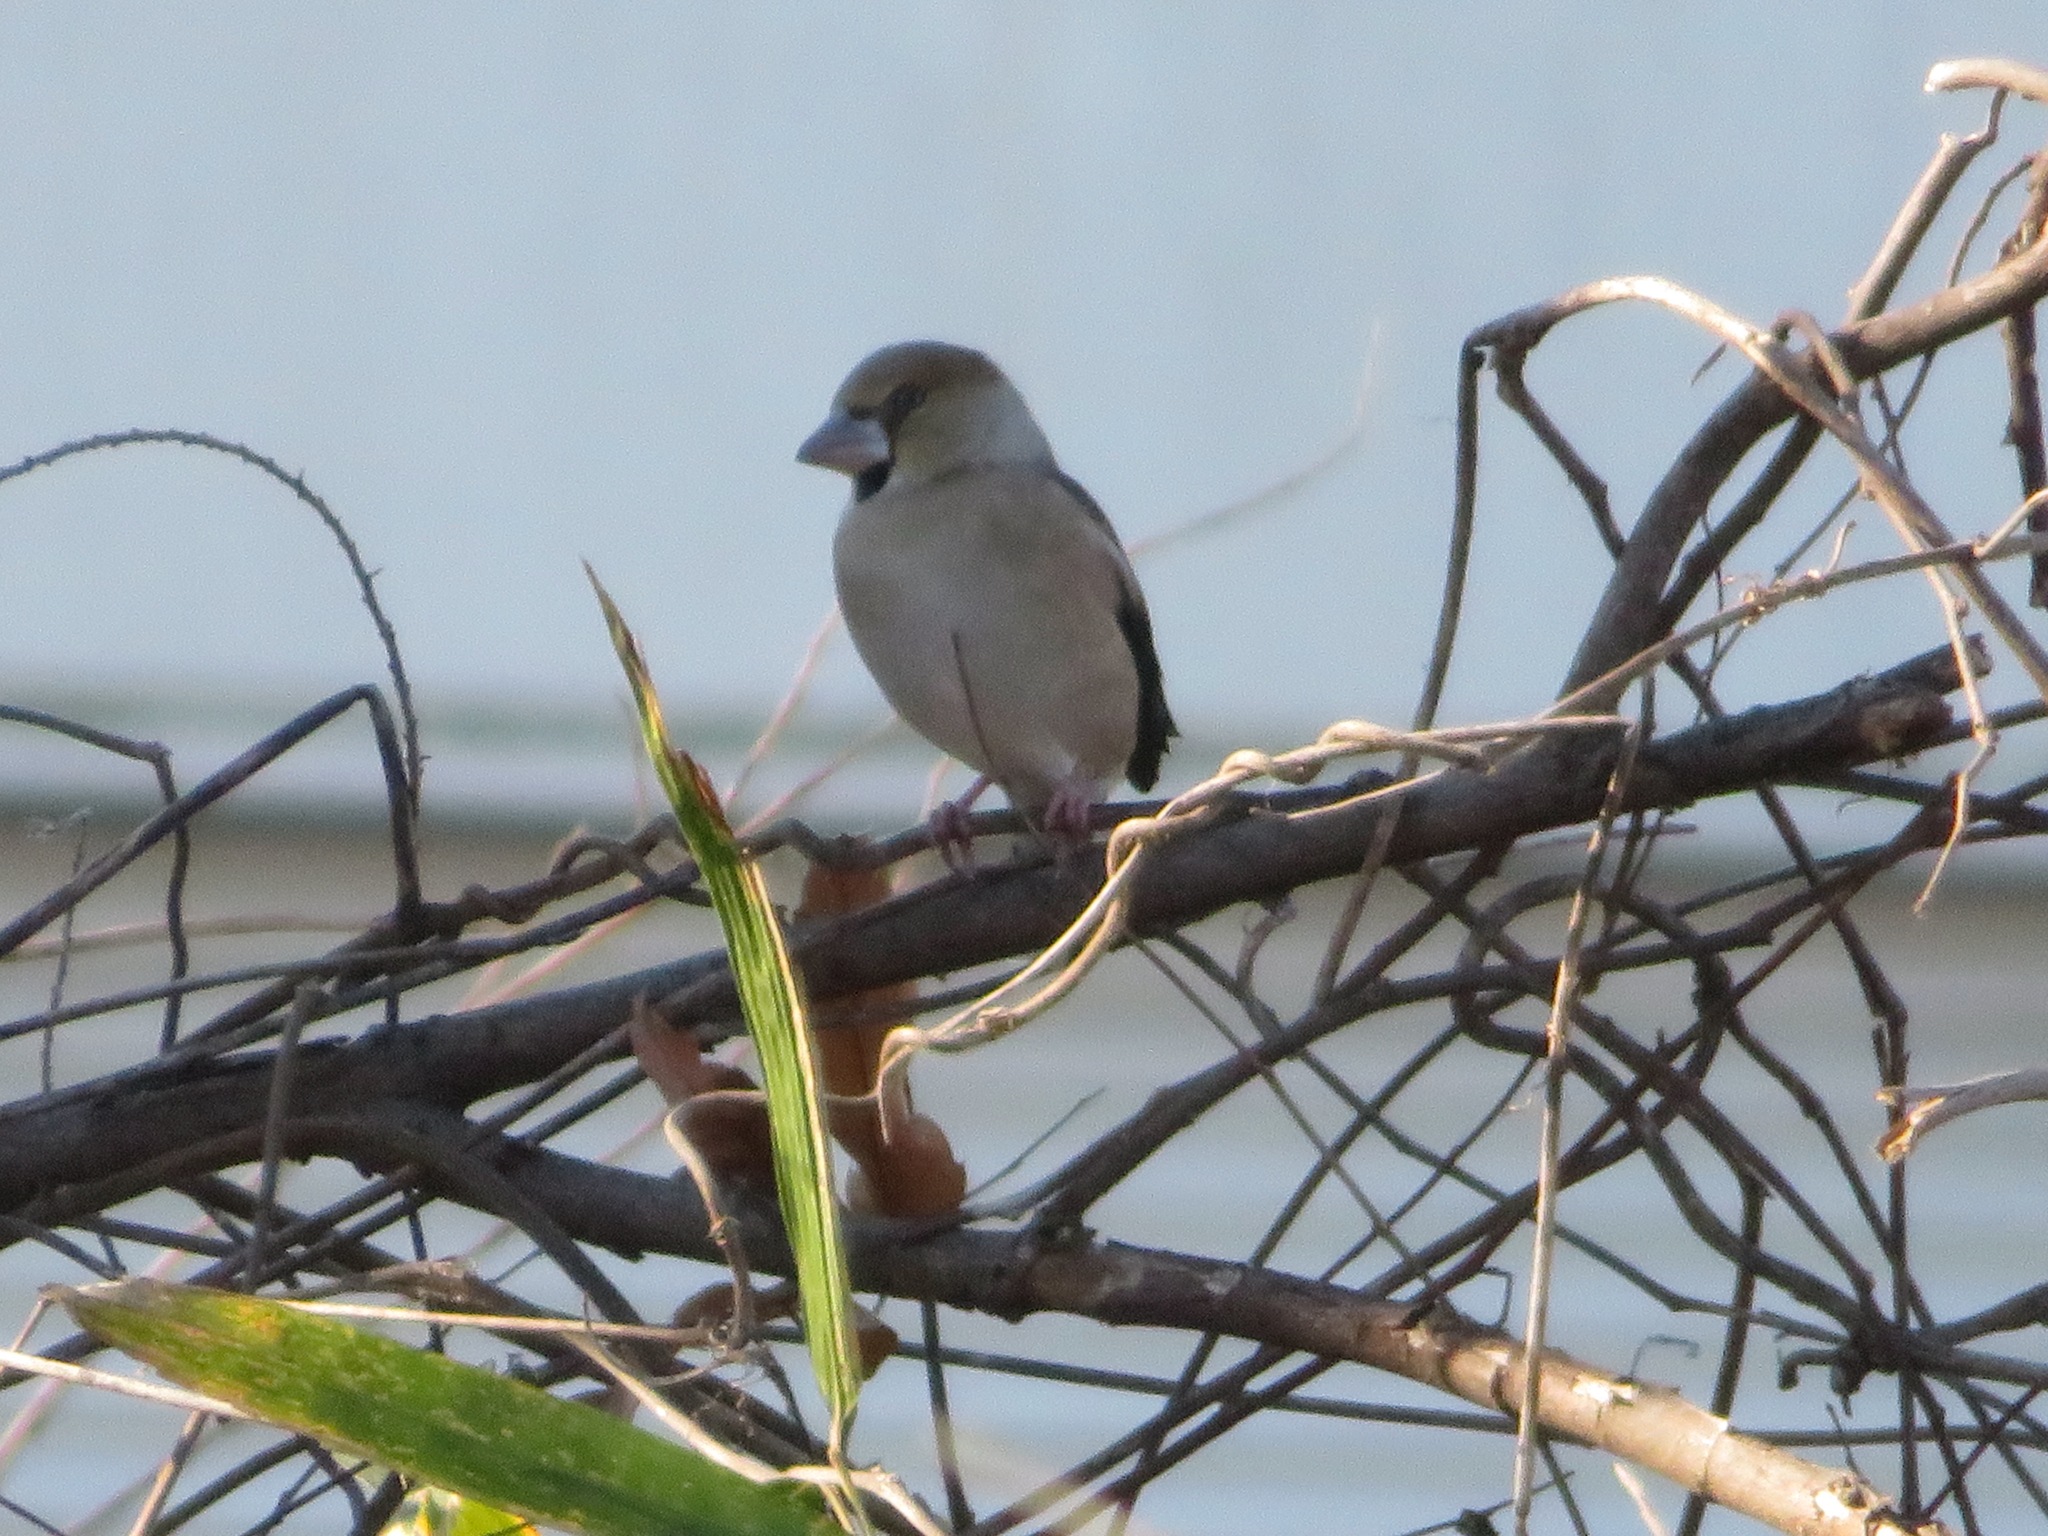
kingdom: Animalia
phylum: Chordata
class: Aves
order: Passeriformes
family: Fringillidae
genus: Coccothraustes
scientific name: Coccothraustes coccothraustes
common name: Hawfinch
